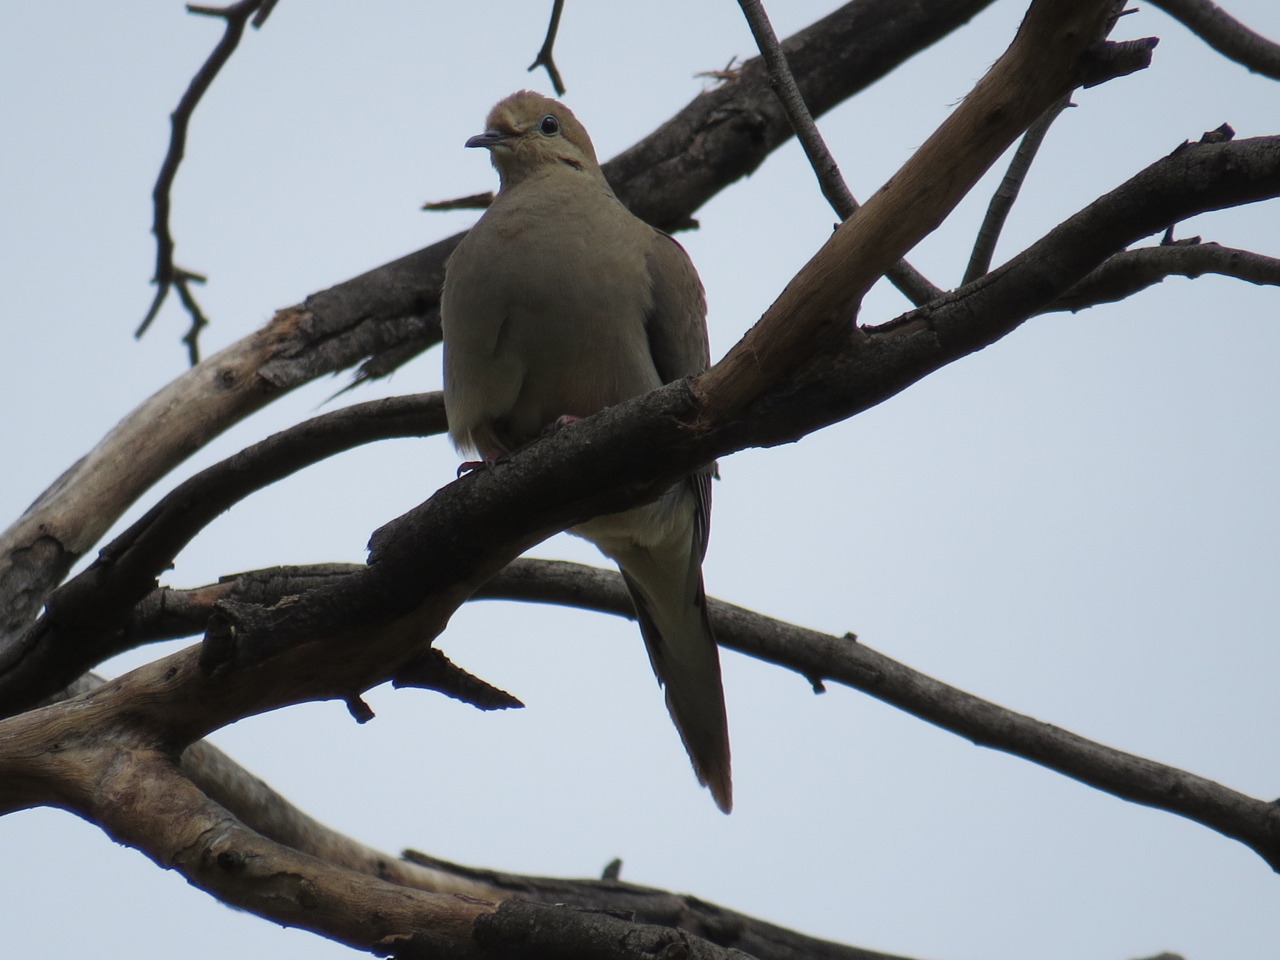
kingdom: Animalia
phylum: Chordata
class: Aves
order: Columbiformes
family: Columbidae
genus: Zenaida
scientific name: Zenaida macroura
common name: Mourning dove
